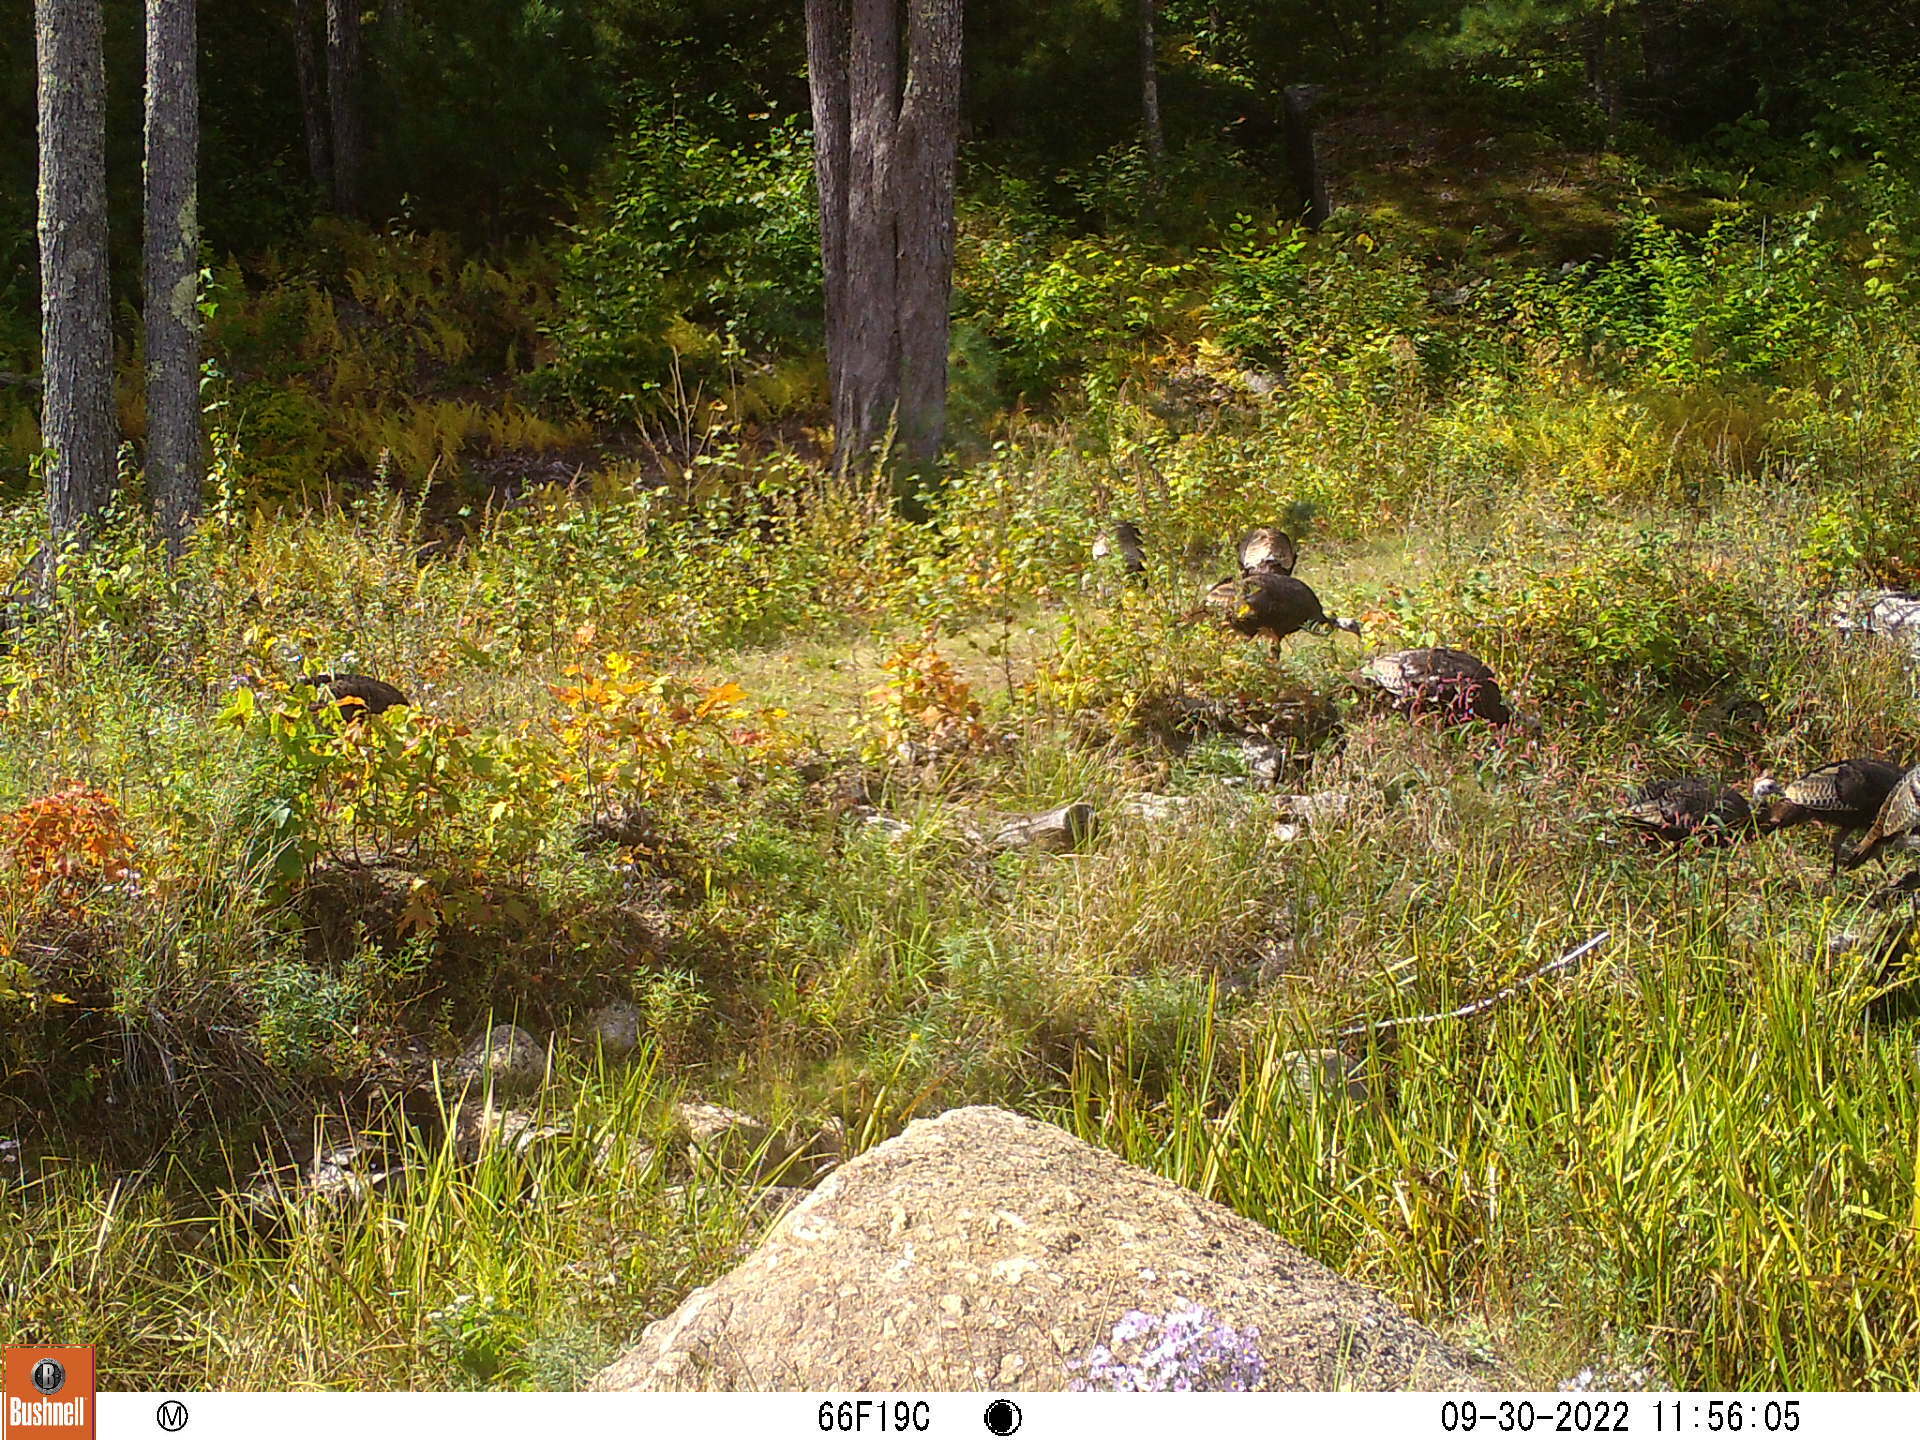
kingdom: Animalia
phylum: Chordata
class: Aves
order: Galliformes
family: Phasianidae
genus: Meleagris
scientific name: Meleagris gallopavo
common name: Wild turkey
